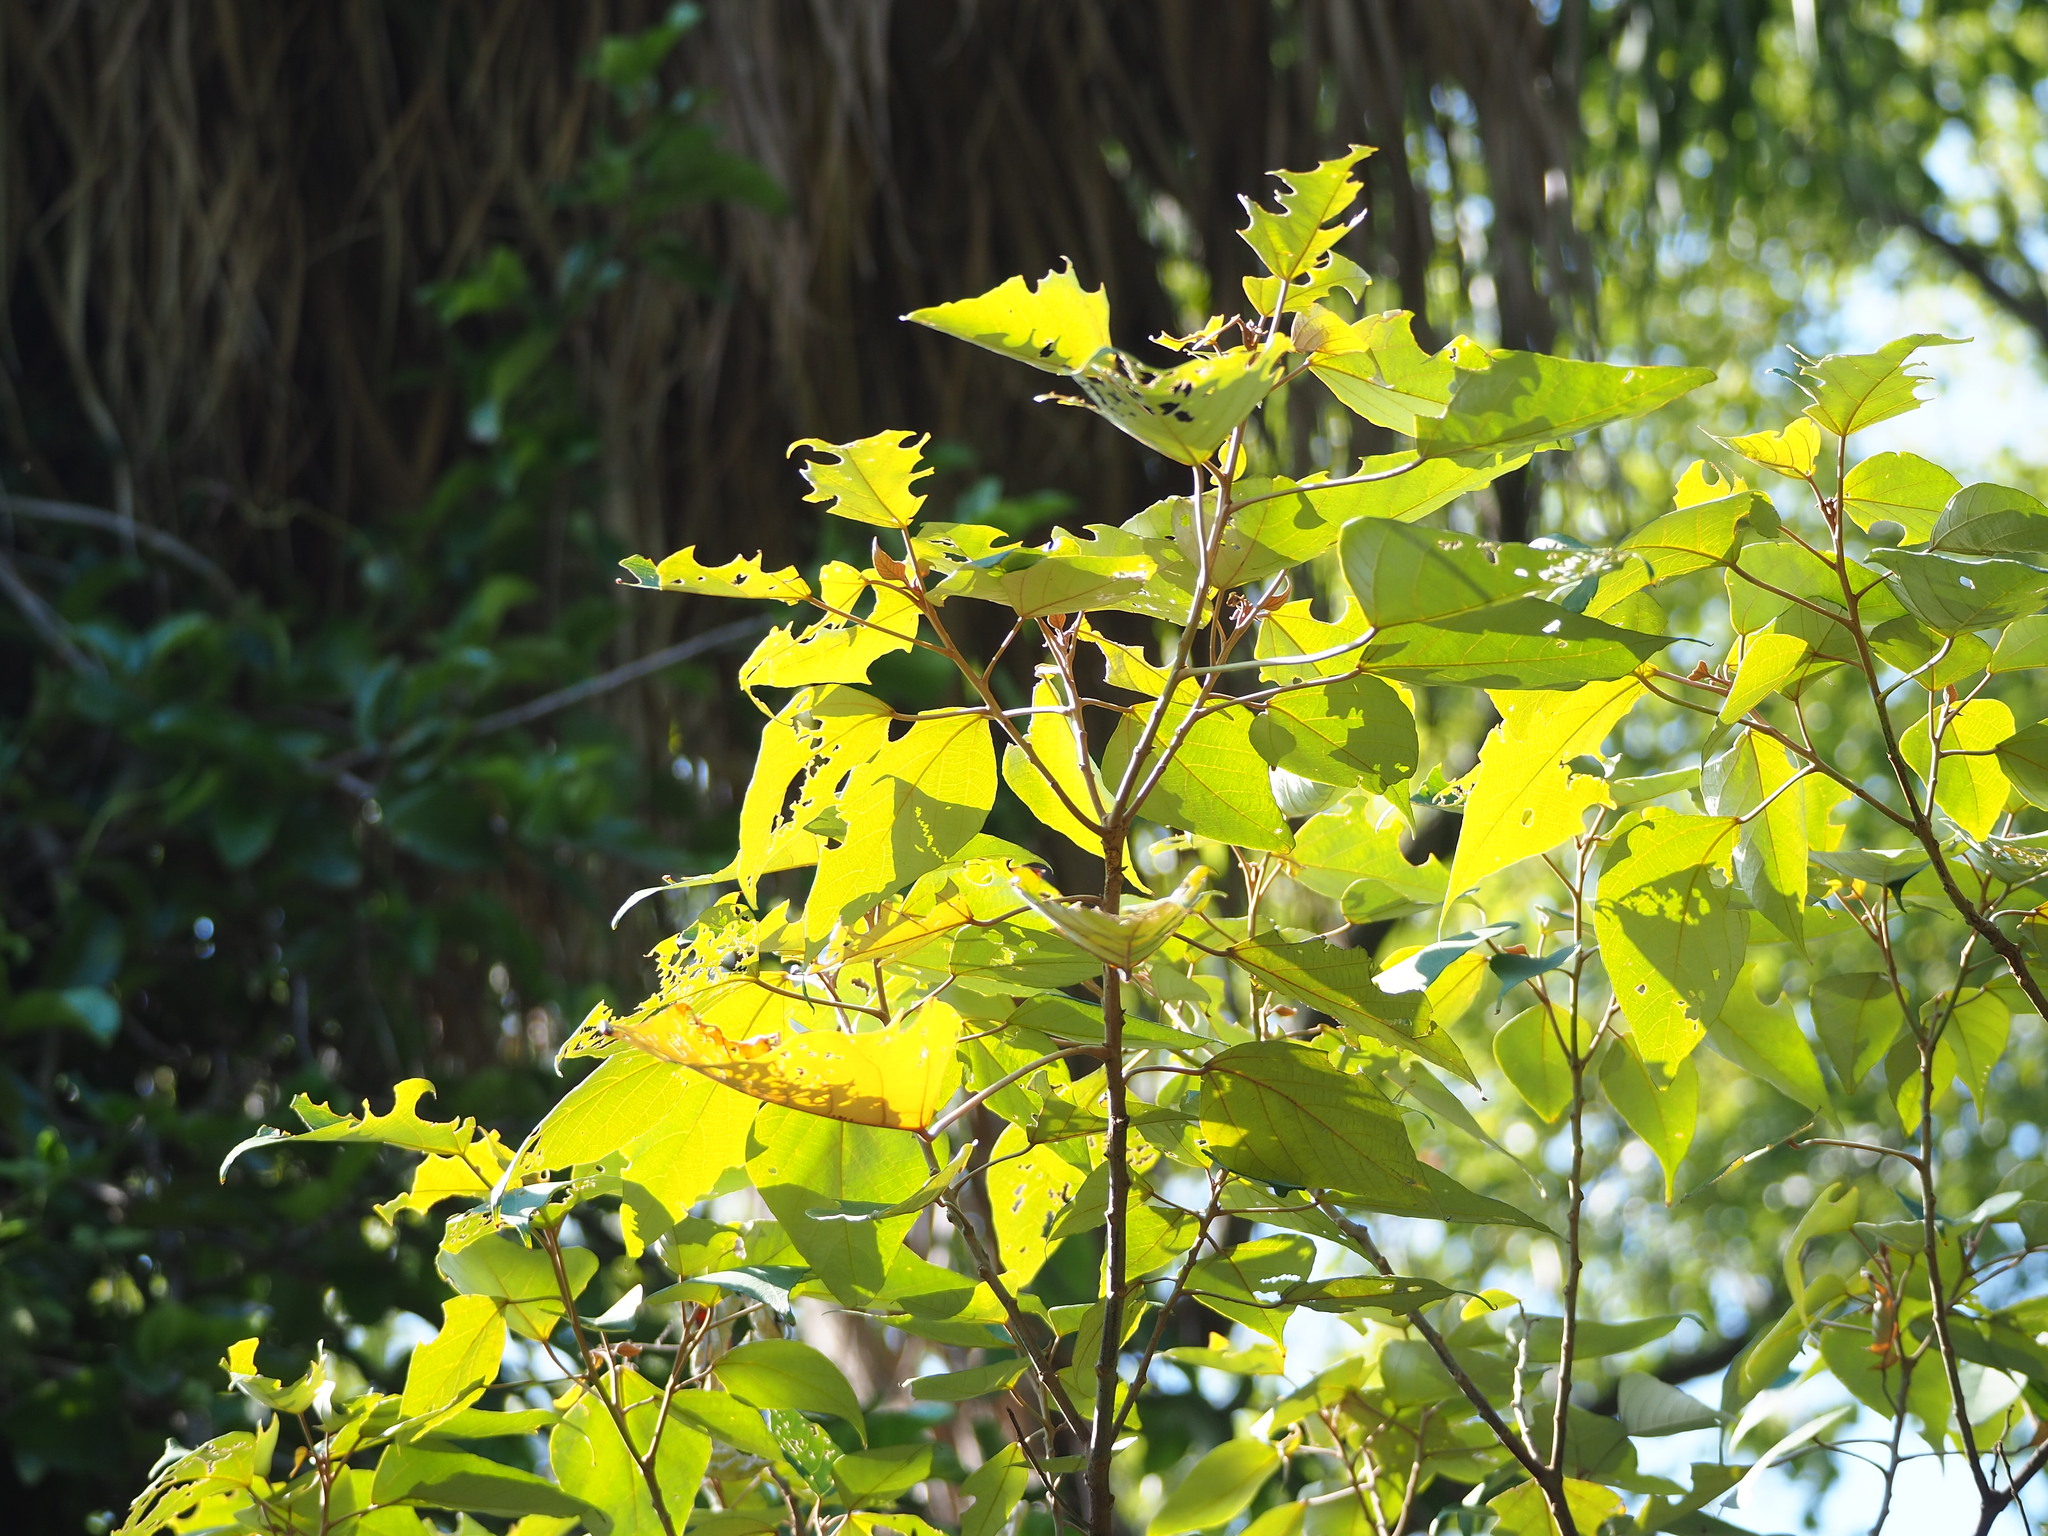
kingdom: Plantae
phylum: Tracheophyta
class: Magnoliopsida
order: Malpighiales
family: Euphorbiaceae
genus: Mallotus
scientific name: Mallotus paniculatus
